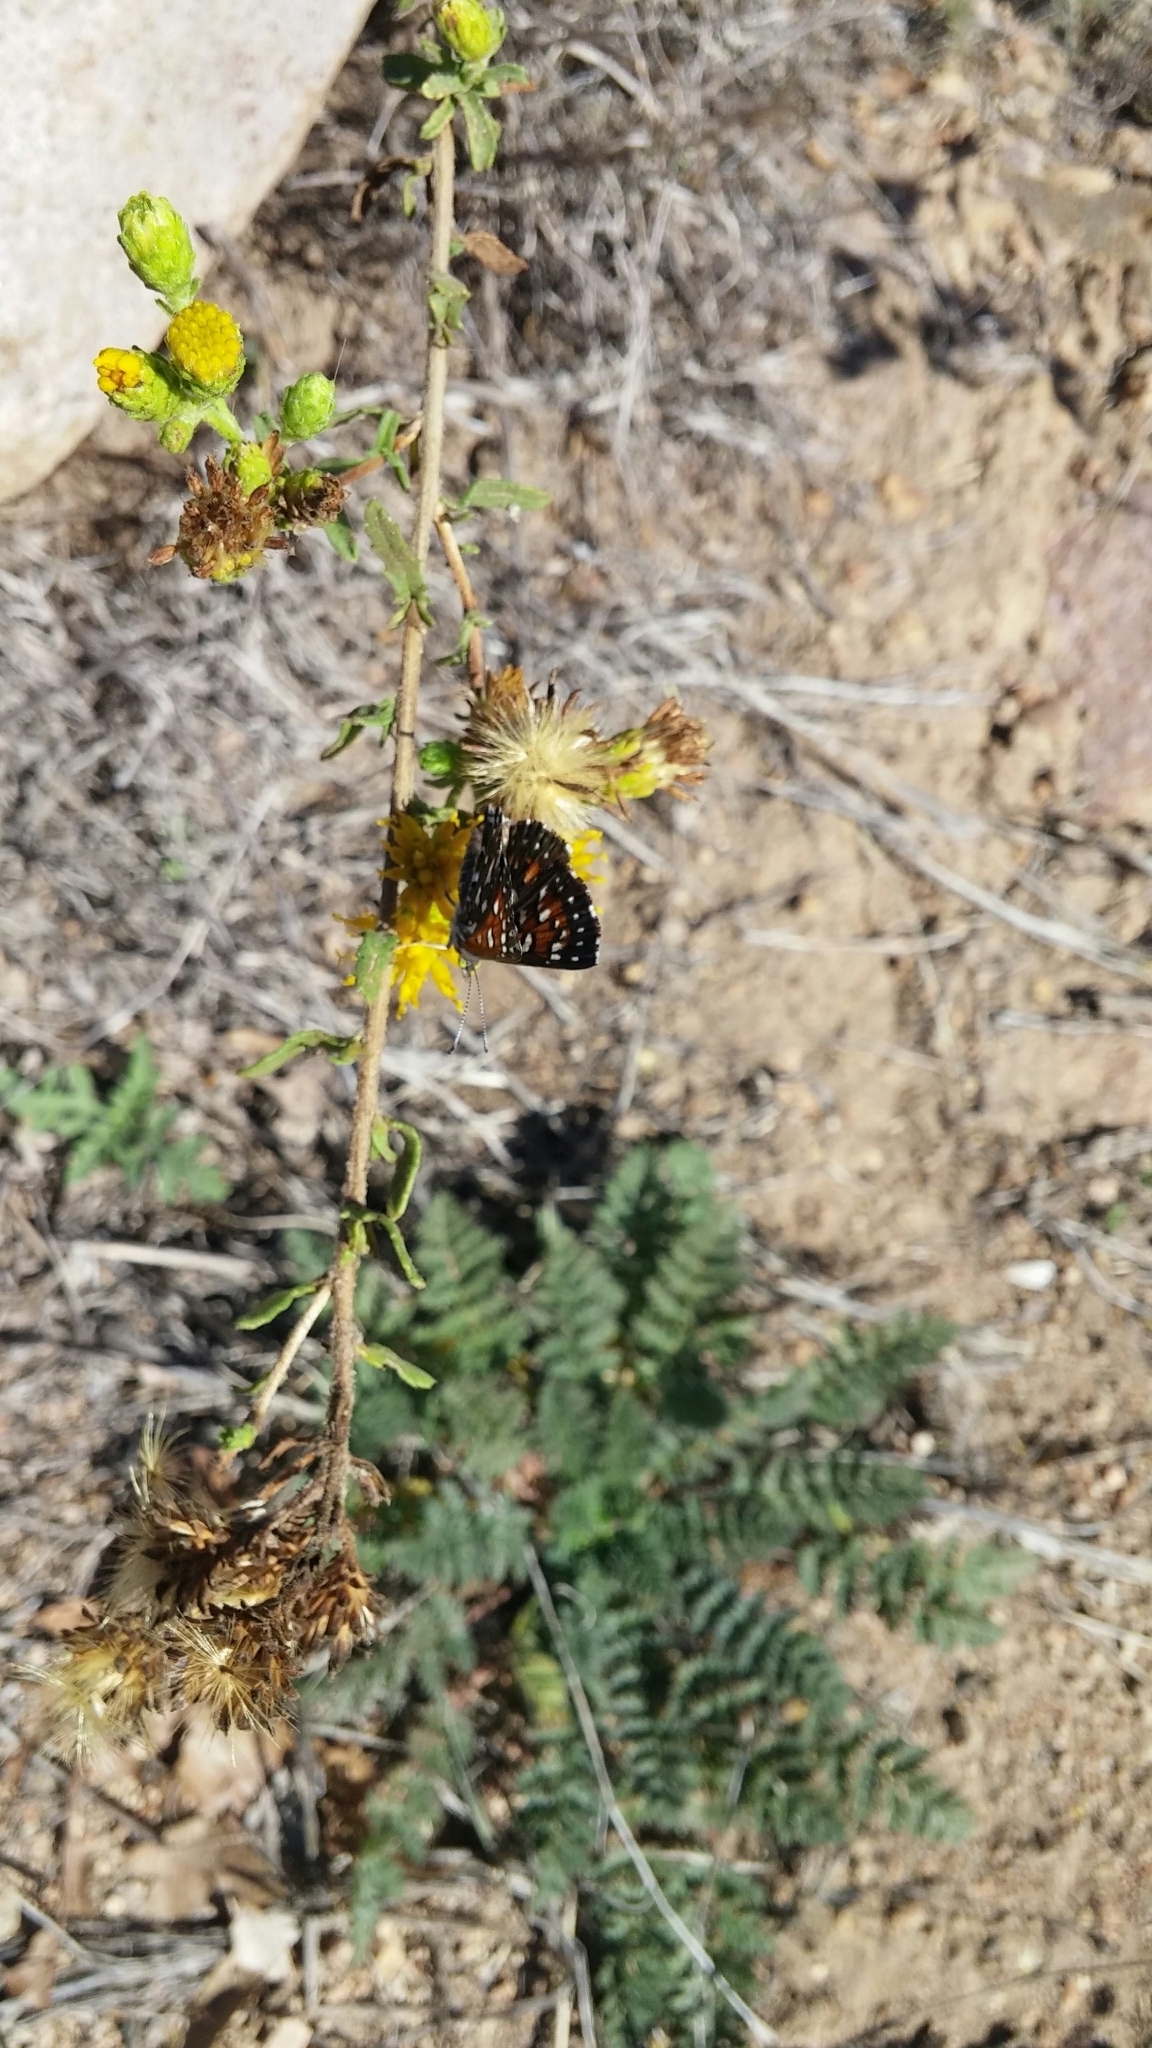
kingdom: Animalia
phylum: Arthropoda
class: Insecta
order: Lepidoptera
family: Riodinidae
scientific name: Riodinidae
